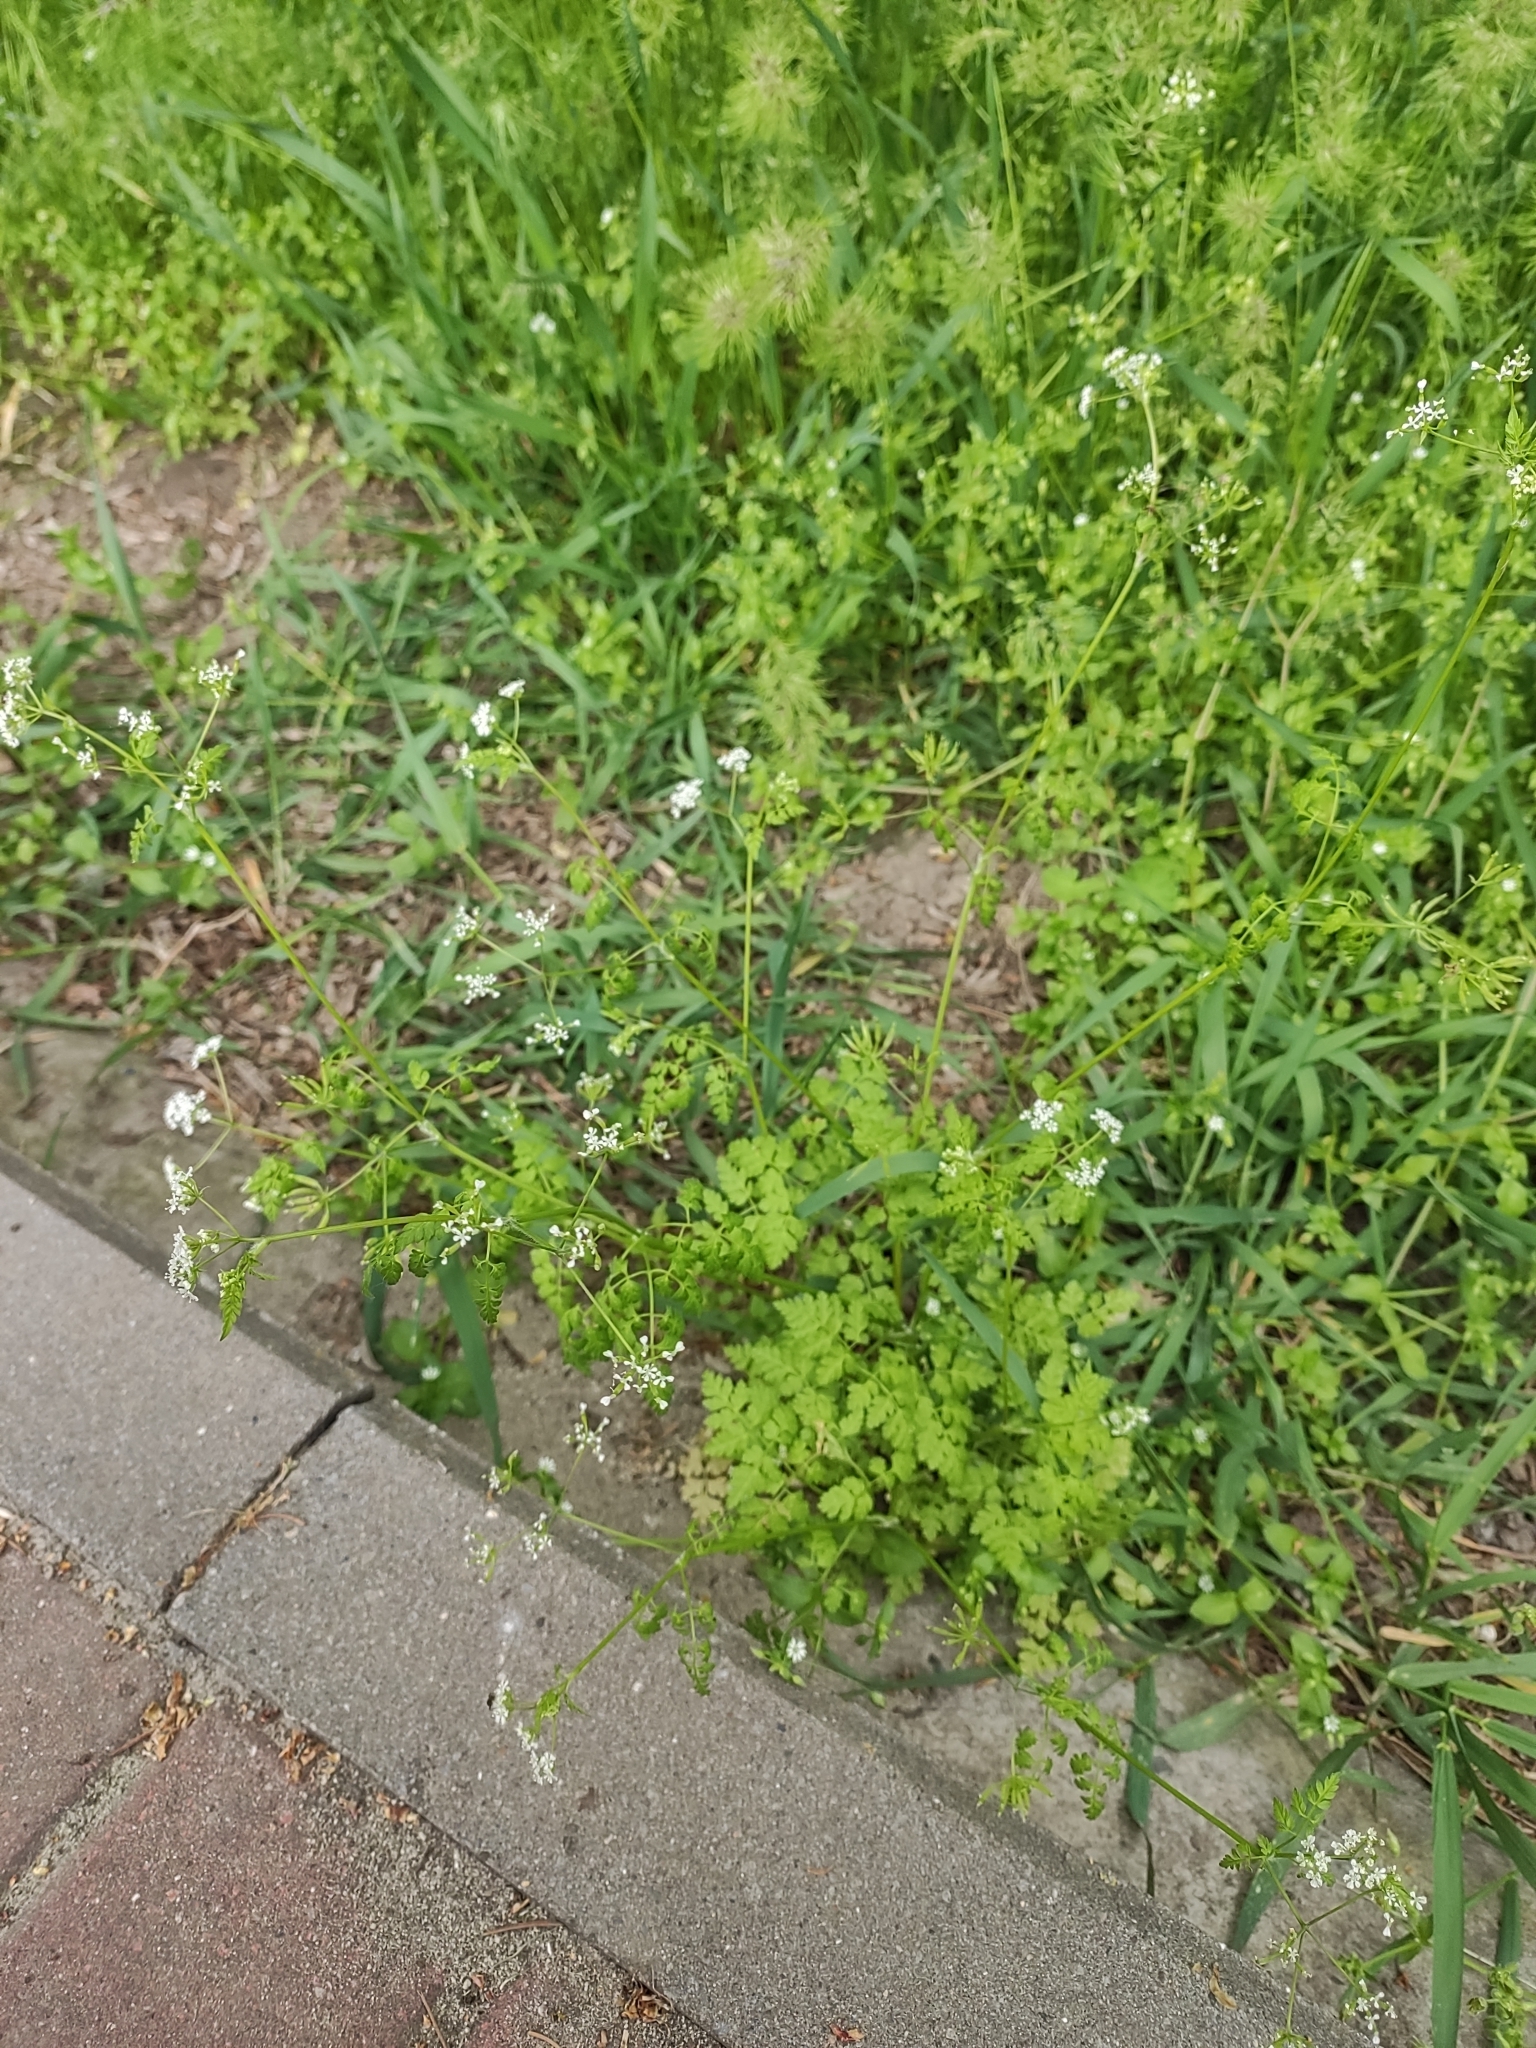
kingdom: Plantae
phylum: Tracheophyta
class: Magnoliopsida
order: Apiales
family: Apiaceae
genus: Anthriscus
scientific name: Anthriscus cerefolium
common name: Garden chervil
